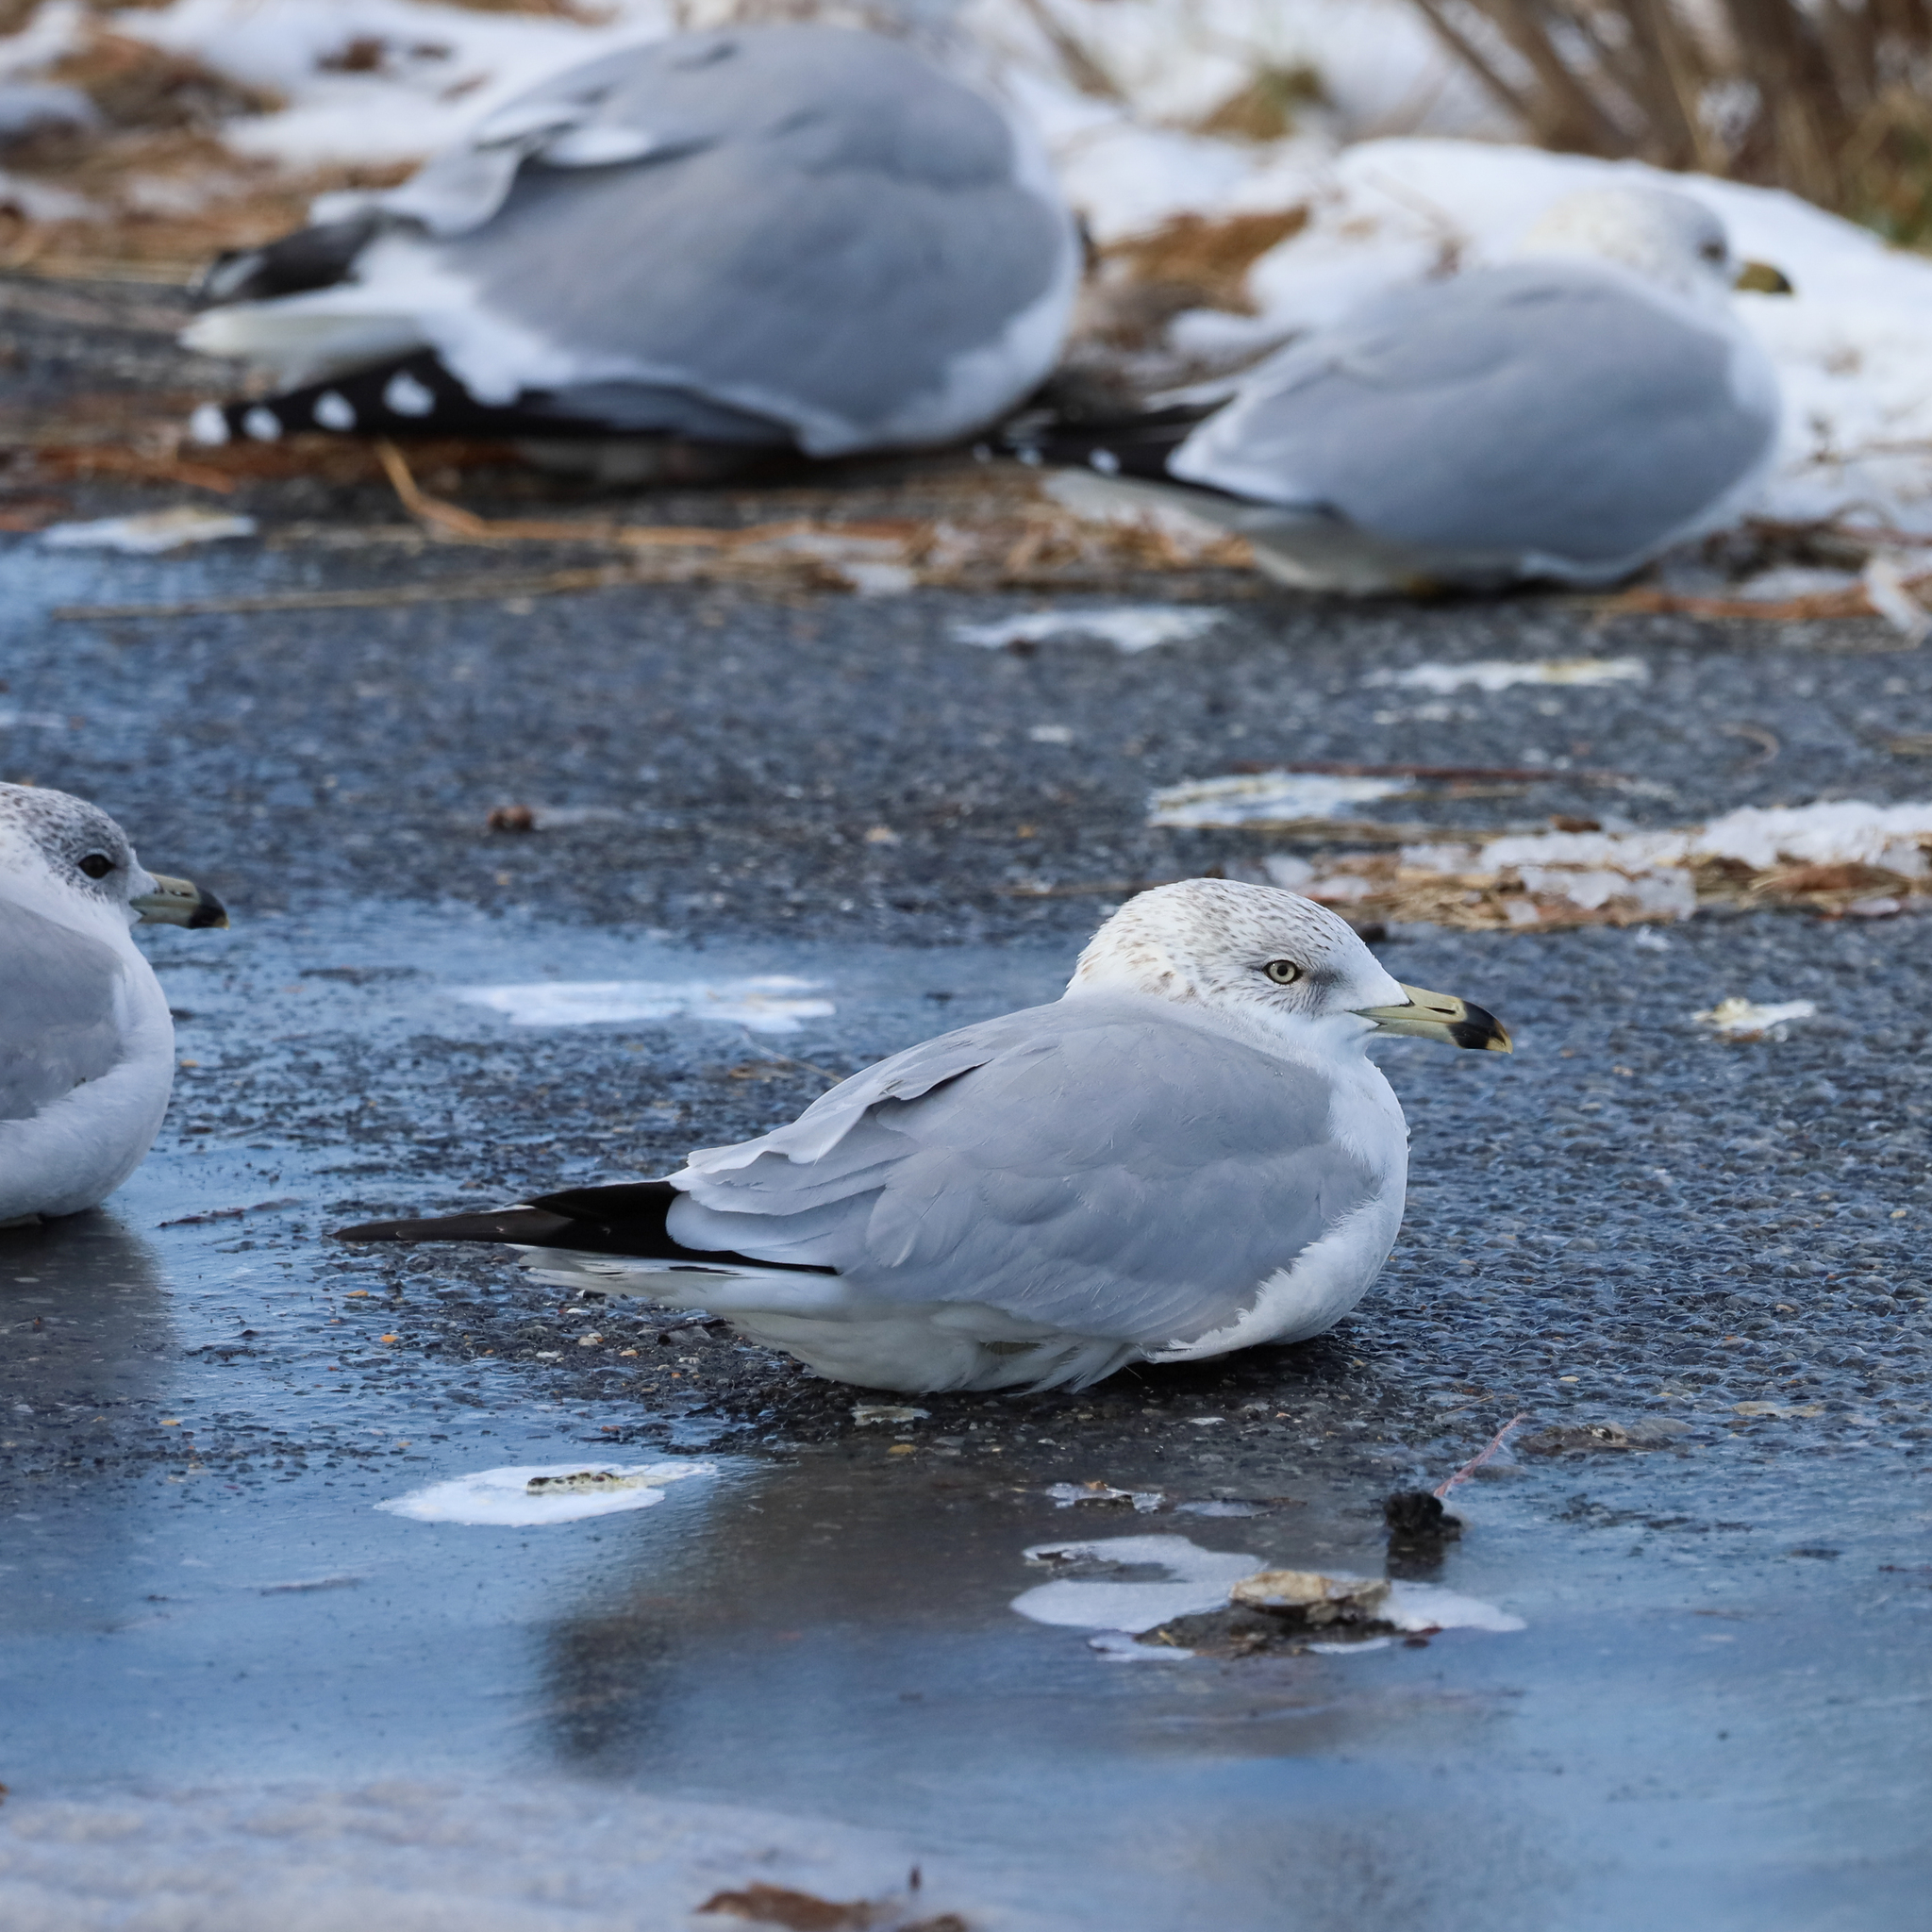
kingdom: Animalia
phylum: Chordata
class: Aves
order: Charadriiformes
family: Laridae
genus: Larus
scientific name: Larus delawarensis
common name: Ring-billed gull
